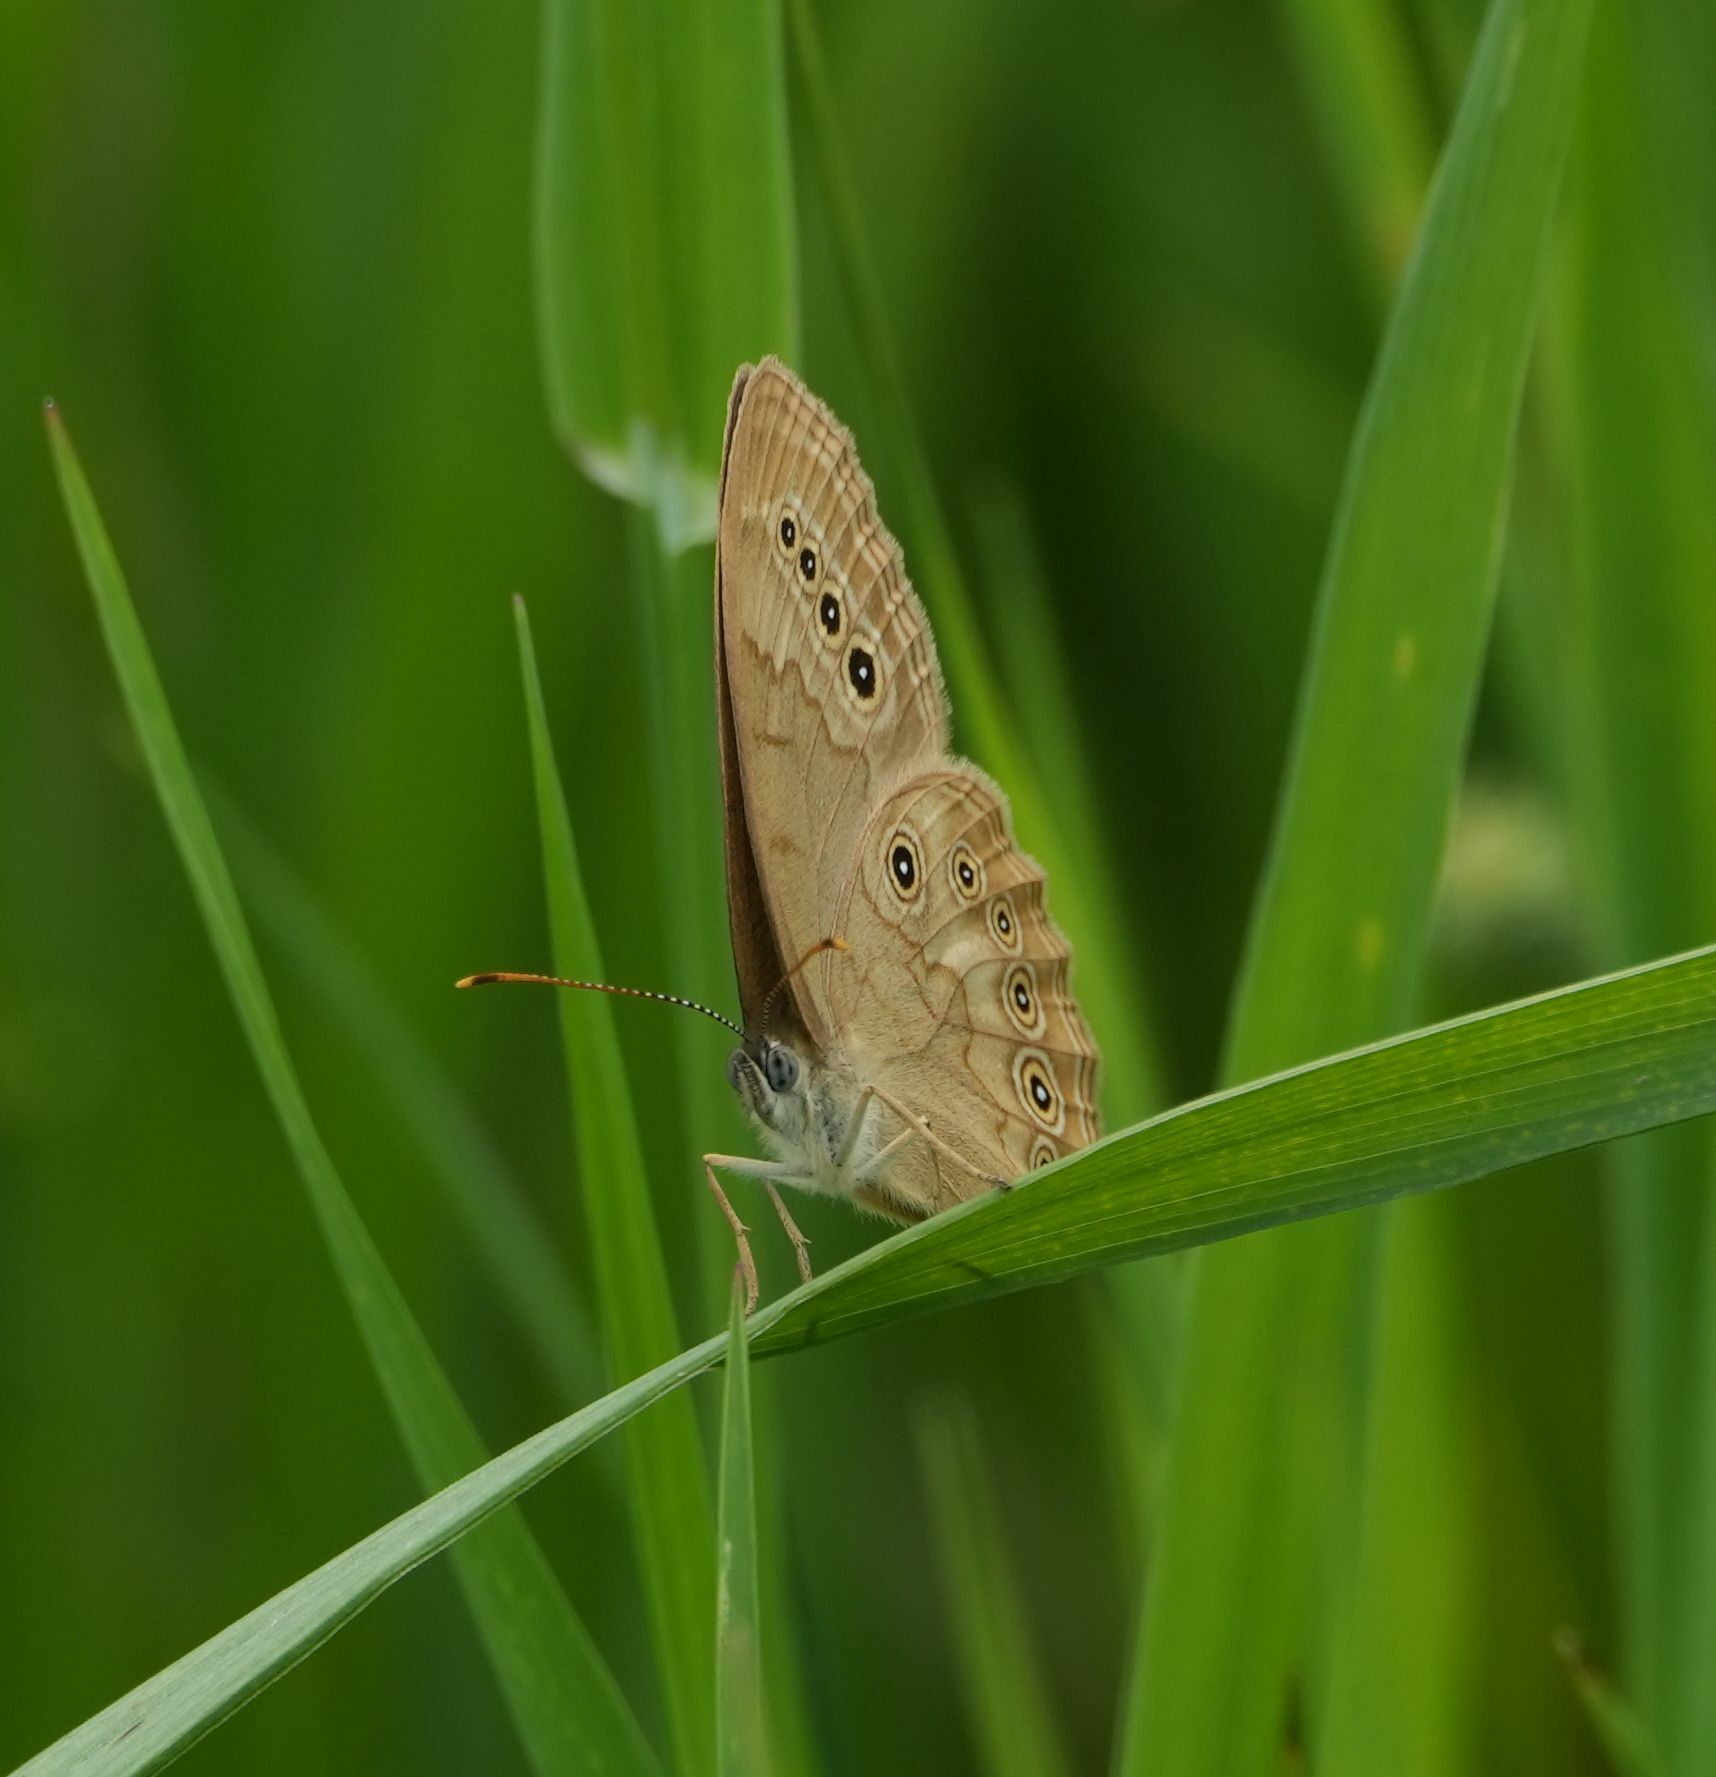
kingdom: Animalia
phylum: Arthropoda
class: Insecta
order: Lepidoptera
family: Nymphalidae
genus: Lethe
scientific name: Lethe eurydice
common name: Eyed brown
